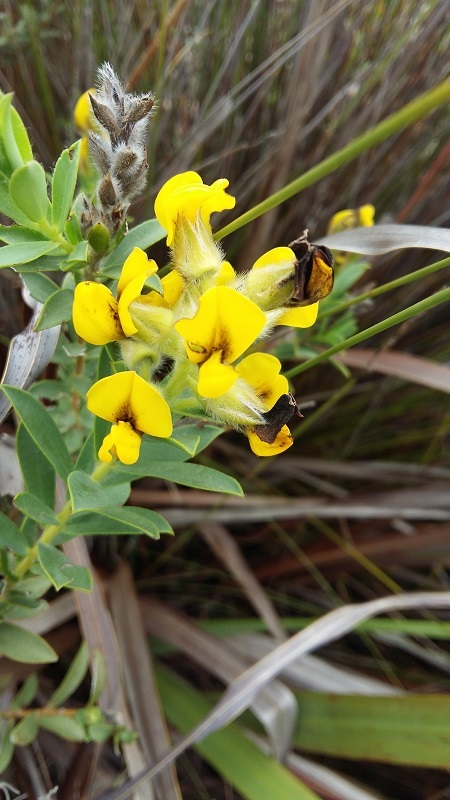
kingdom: Plantae
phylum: Tracheophyta
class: Magnoliopsida
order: Fabales
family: Fabaceae
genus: Liparia
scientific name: Liparia hirsuta
